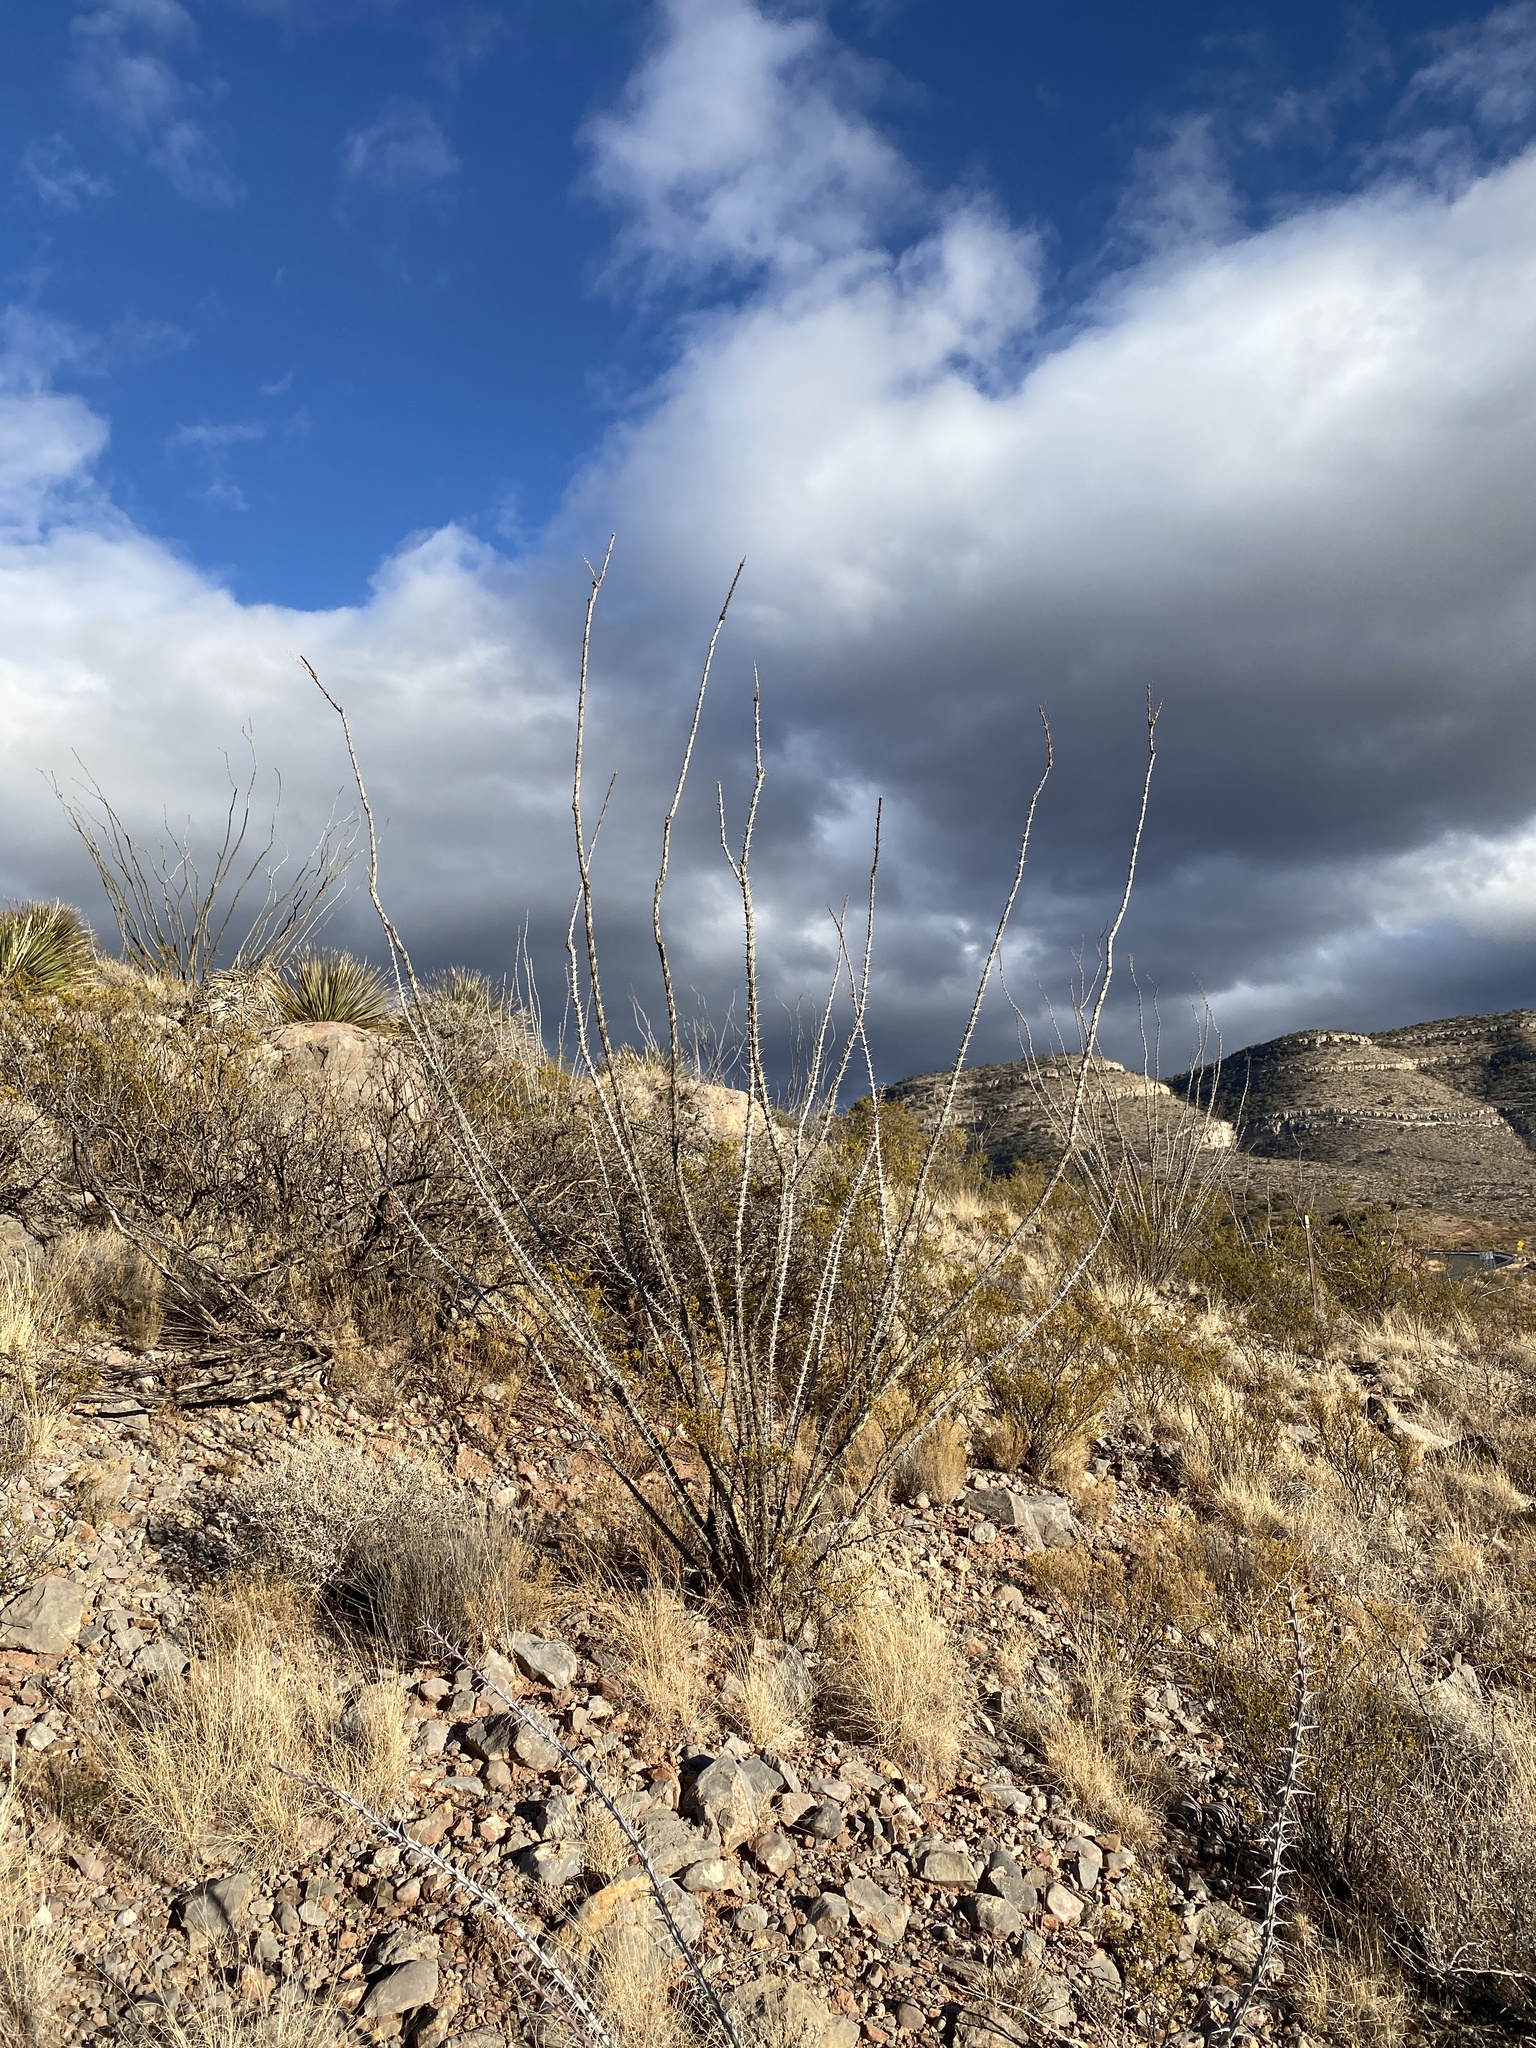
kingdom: Plantae
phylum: Tracheophyta
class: Magnoliopsida
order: Ericales
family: Fouquieriaceae
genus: Fouquieria
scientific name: Fouquieria splendens
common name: Vine-cactus
